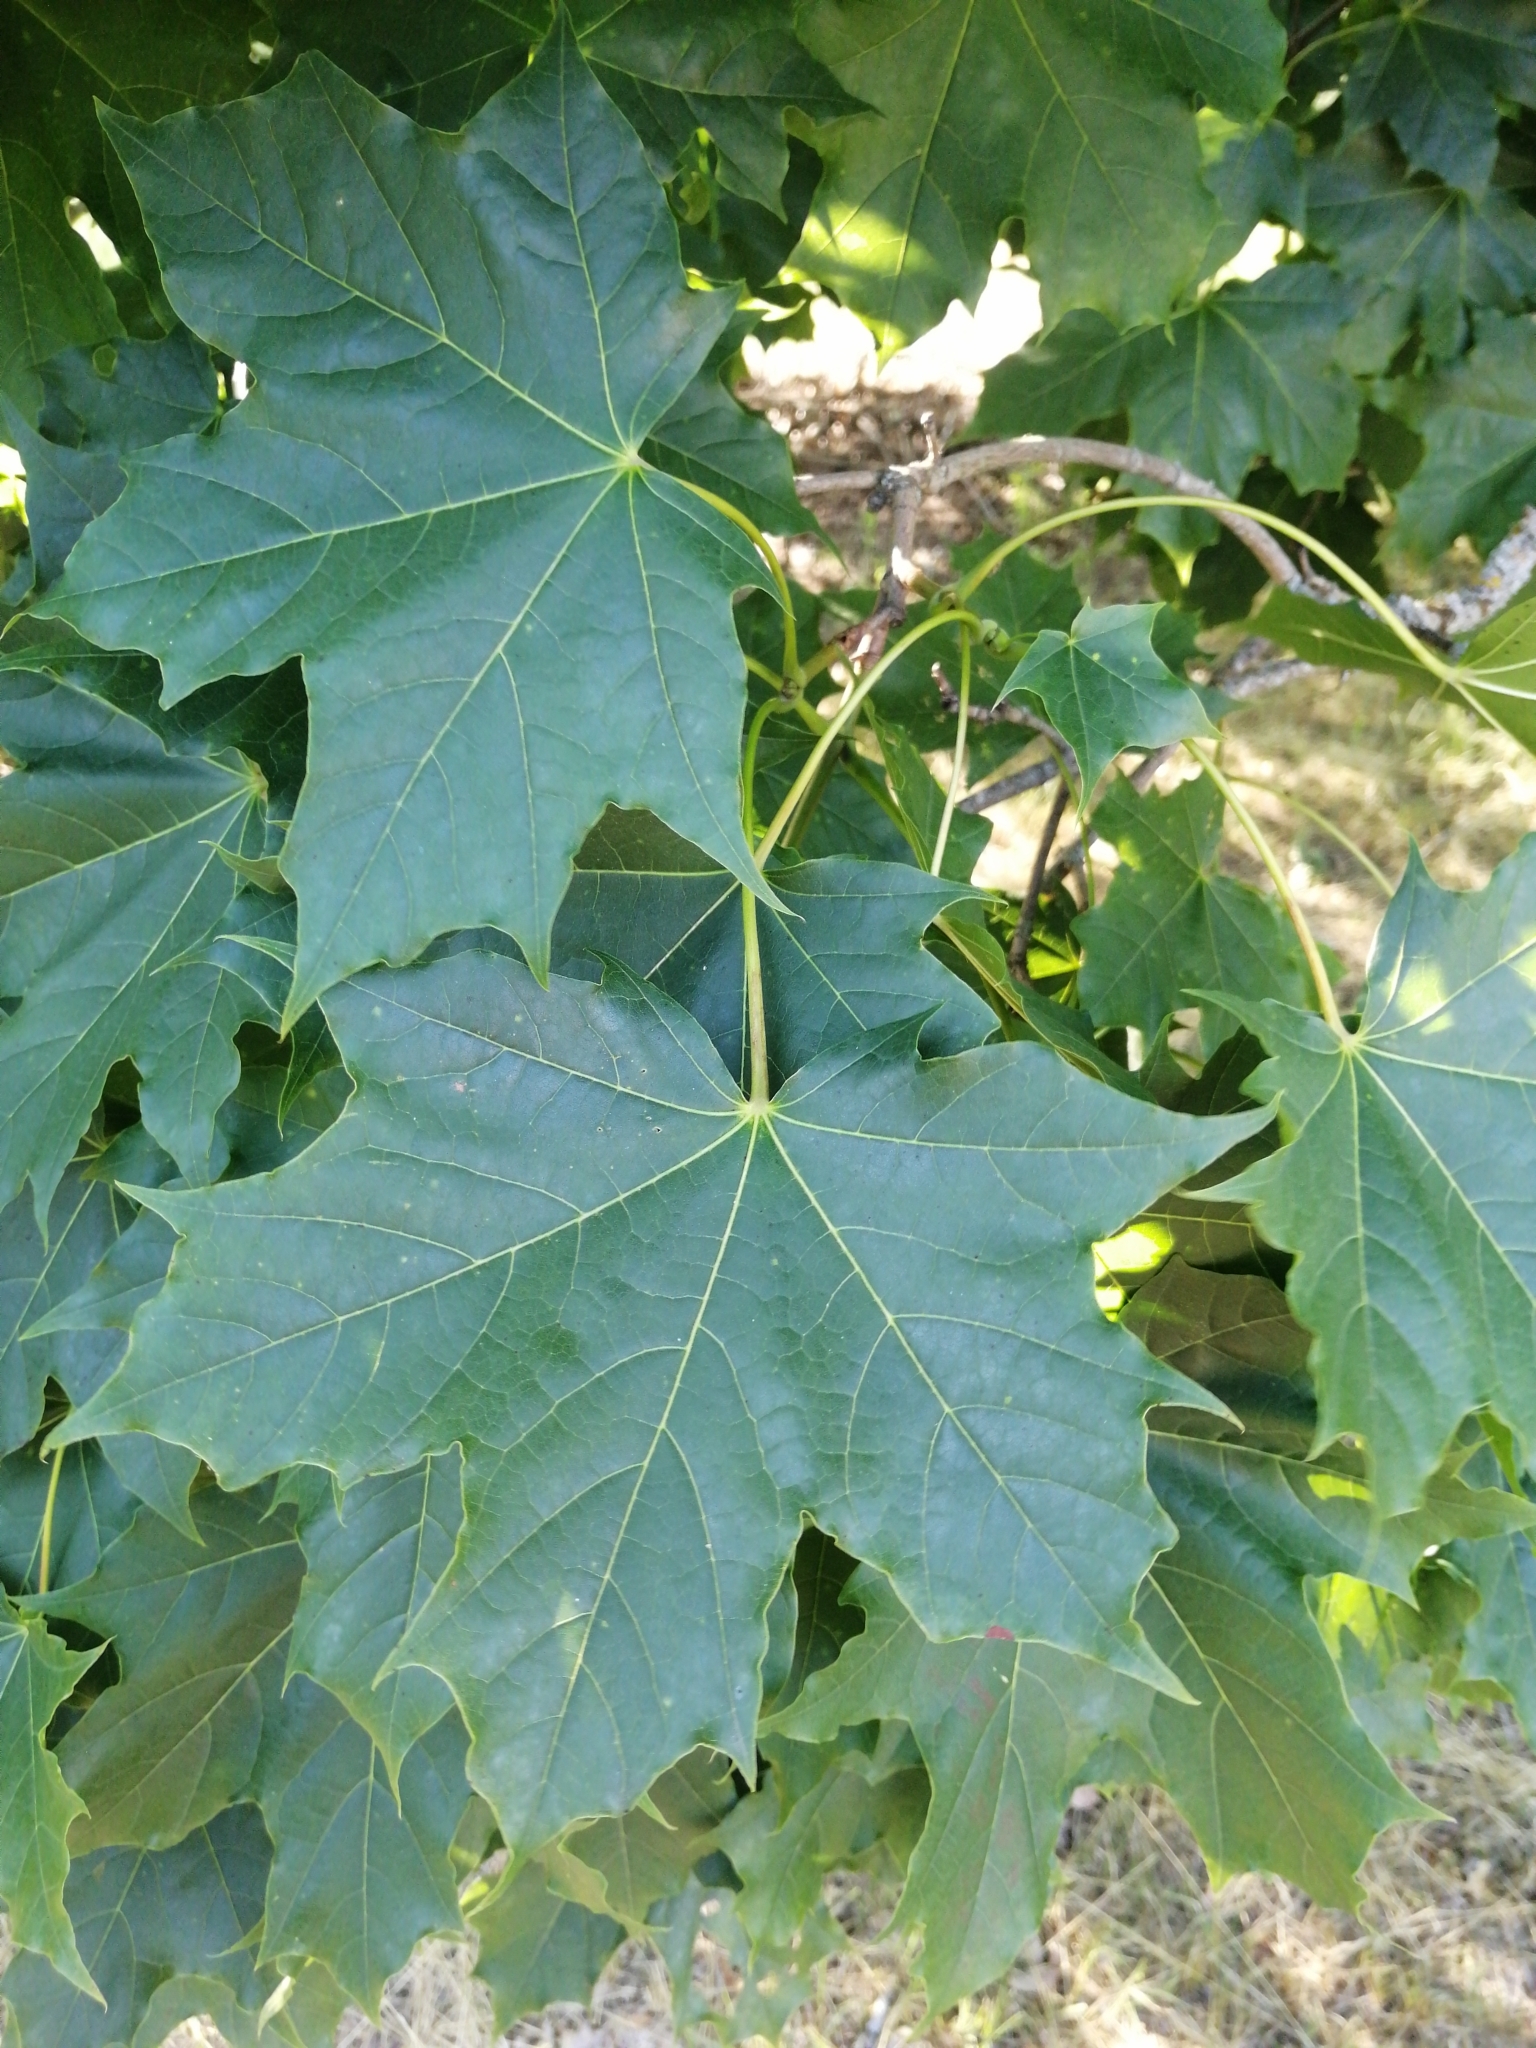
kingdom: Plantae
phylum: Tracheophyta
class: Magnoliopsida
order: Sapindales
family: Sapindaceae
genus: Acer
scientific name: Acer platanoides
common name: Norway maple
